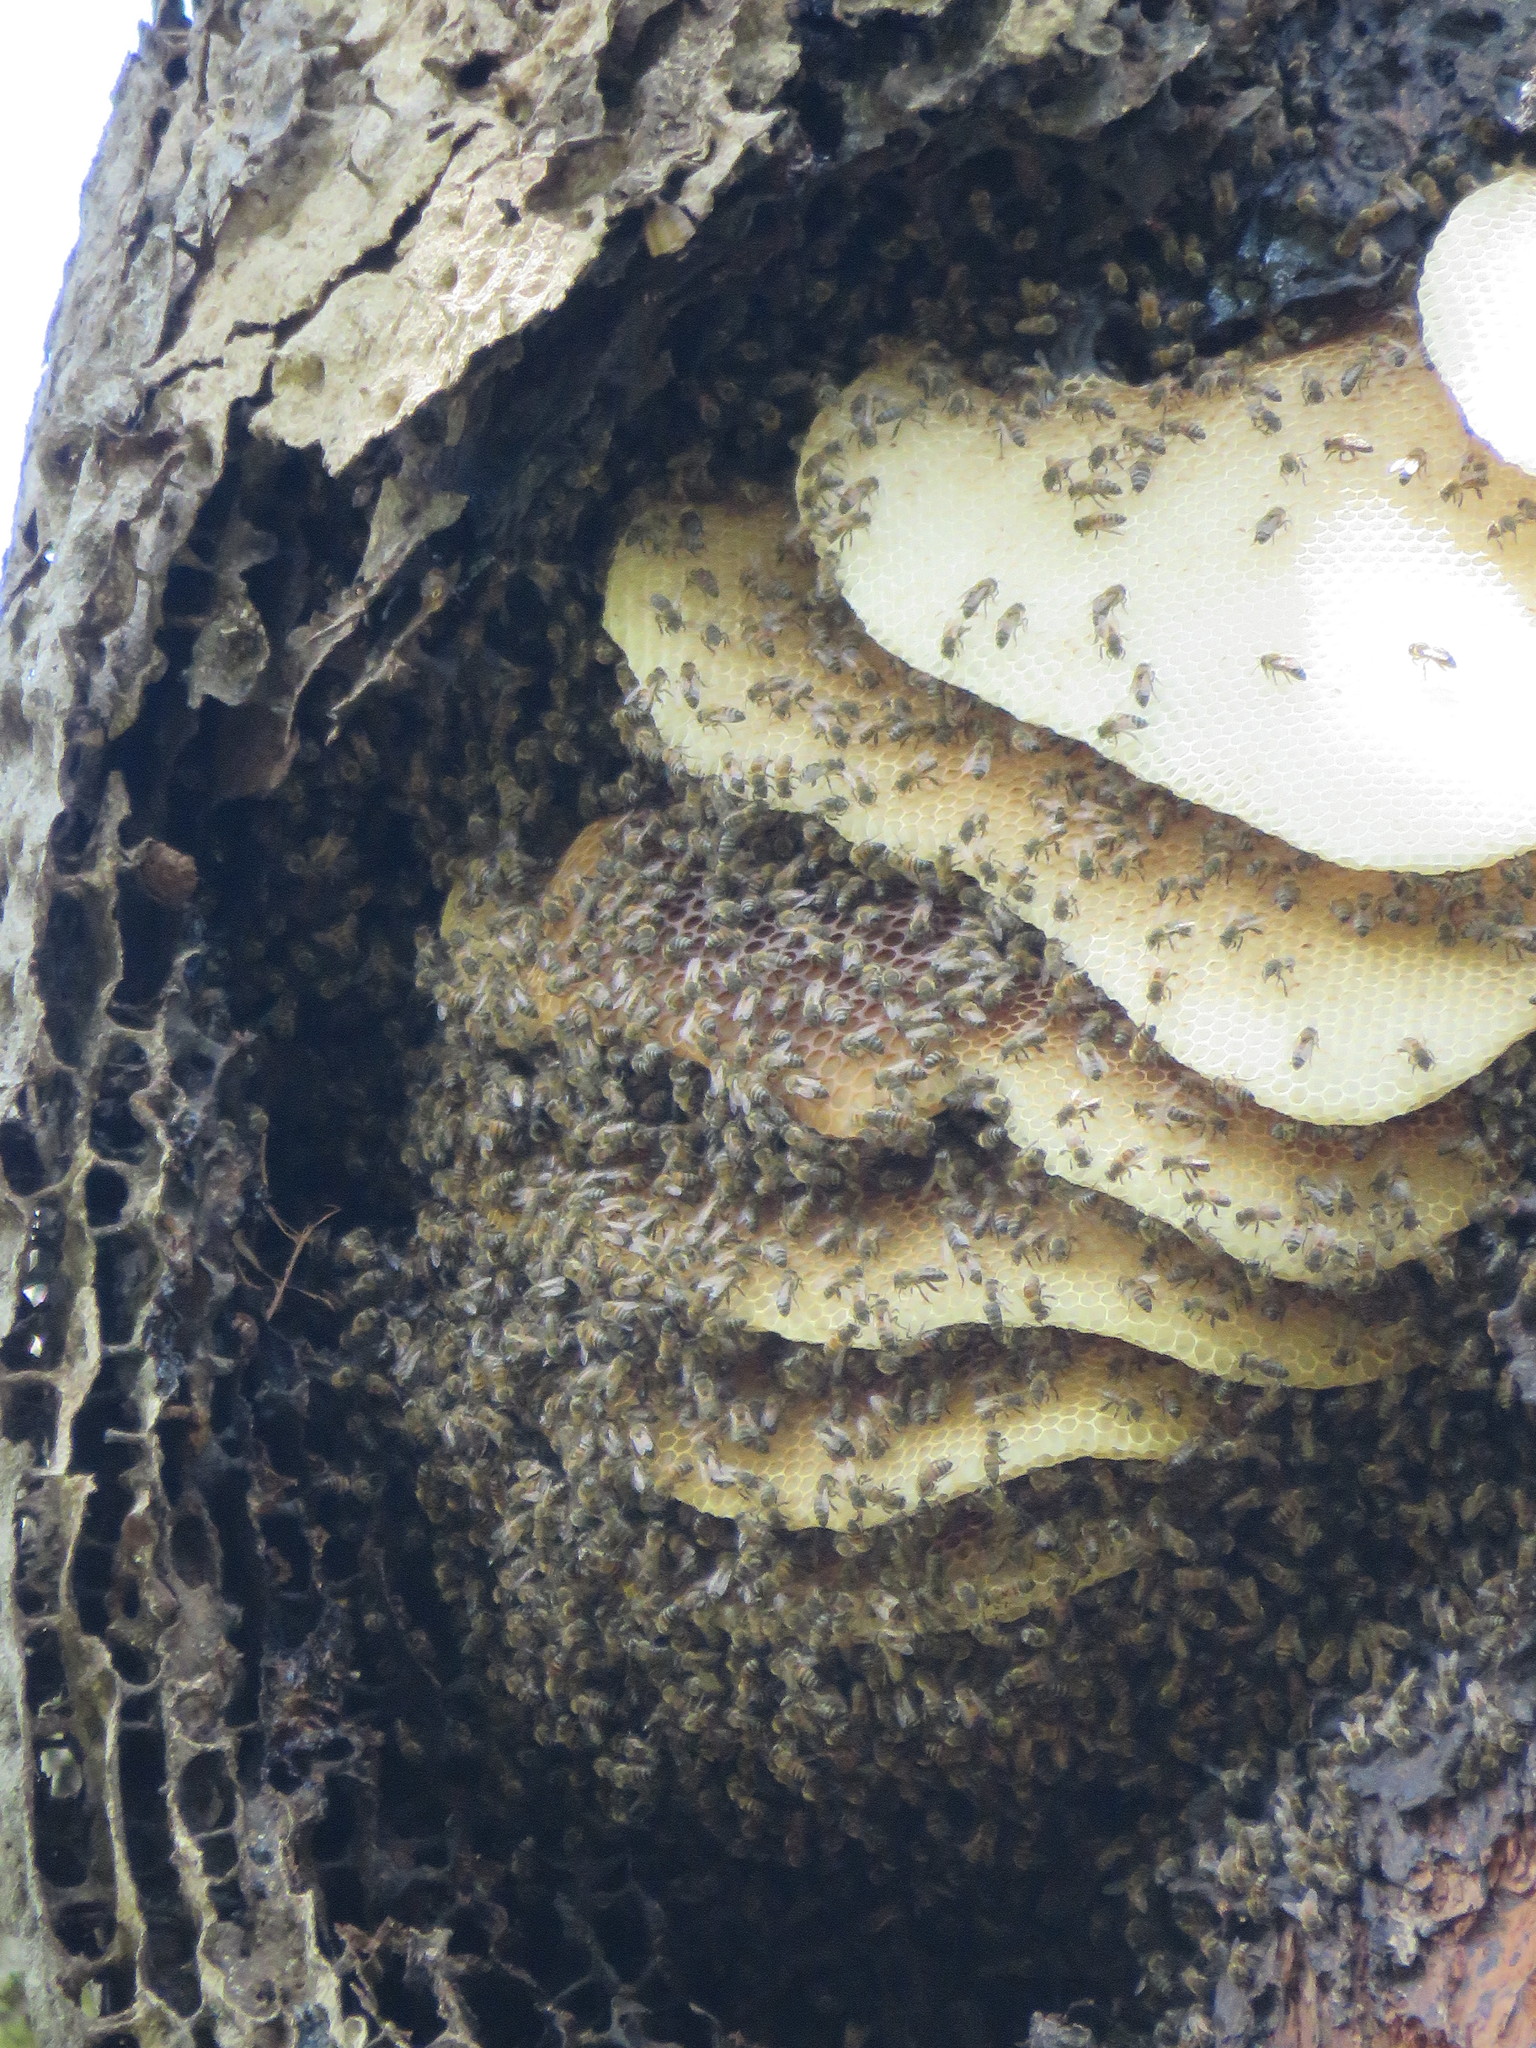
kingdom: Animalia
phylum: Arthropoda
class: Insecta
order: Hymenoptera
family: Apidae
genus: Apis
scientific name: Apis mellifera
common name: Honey bee
